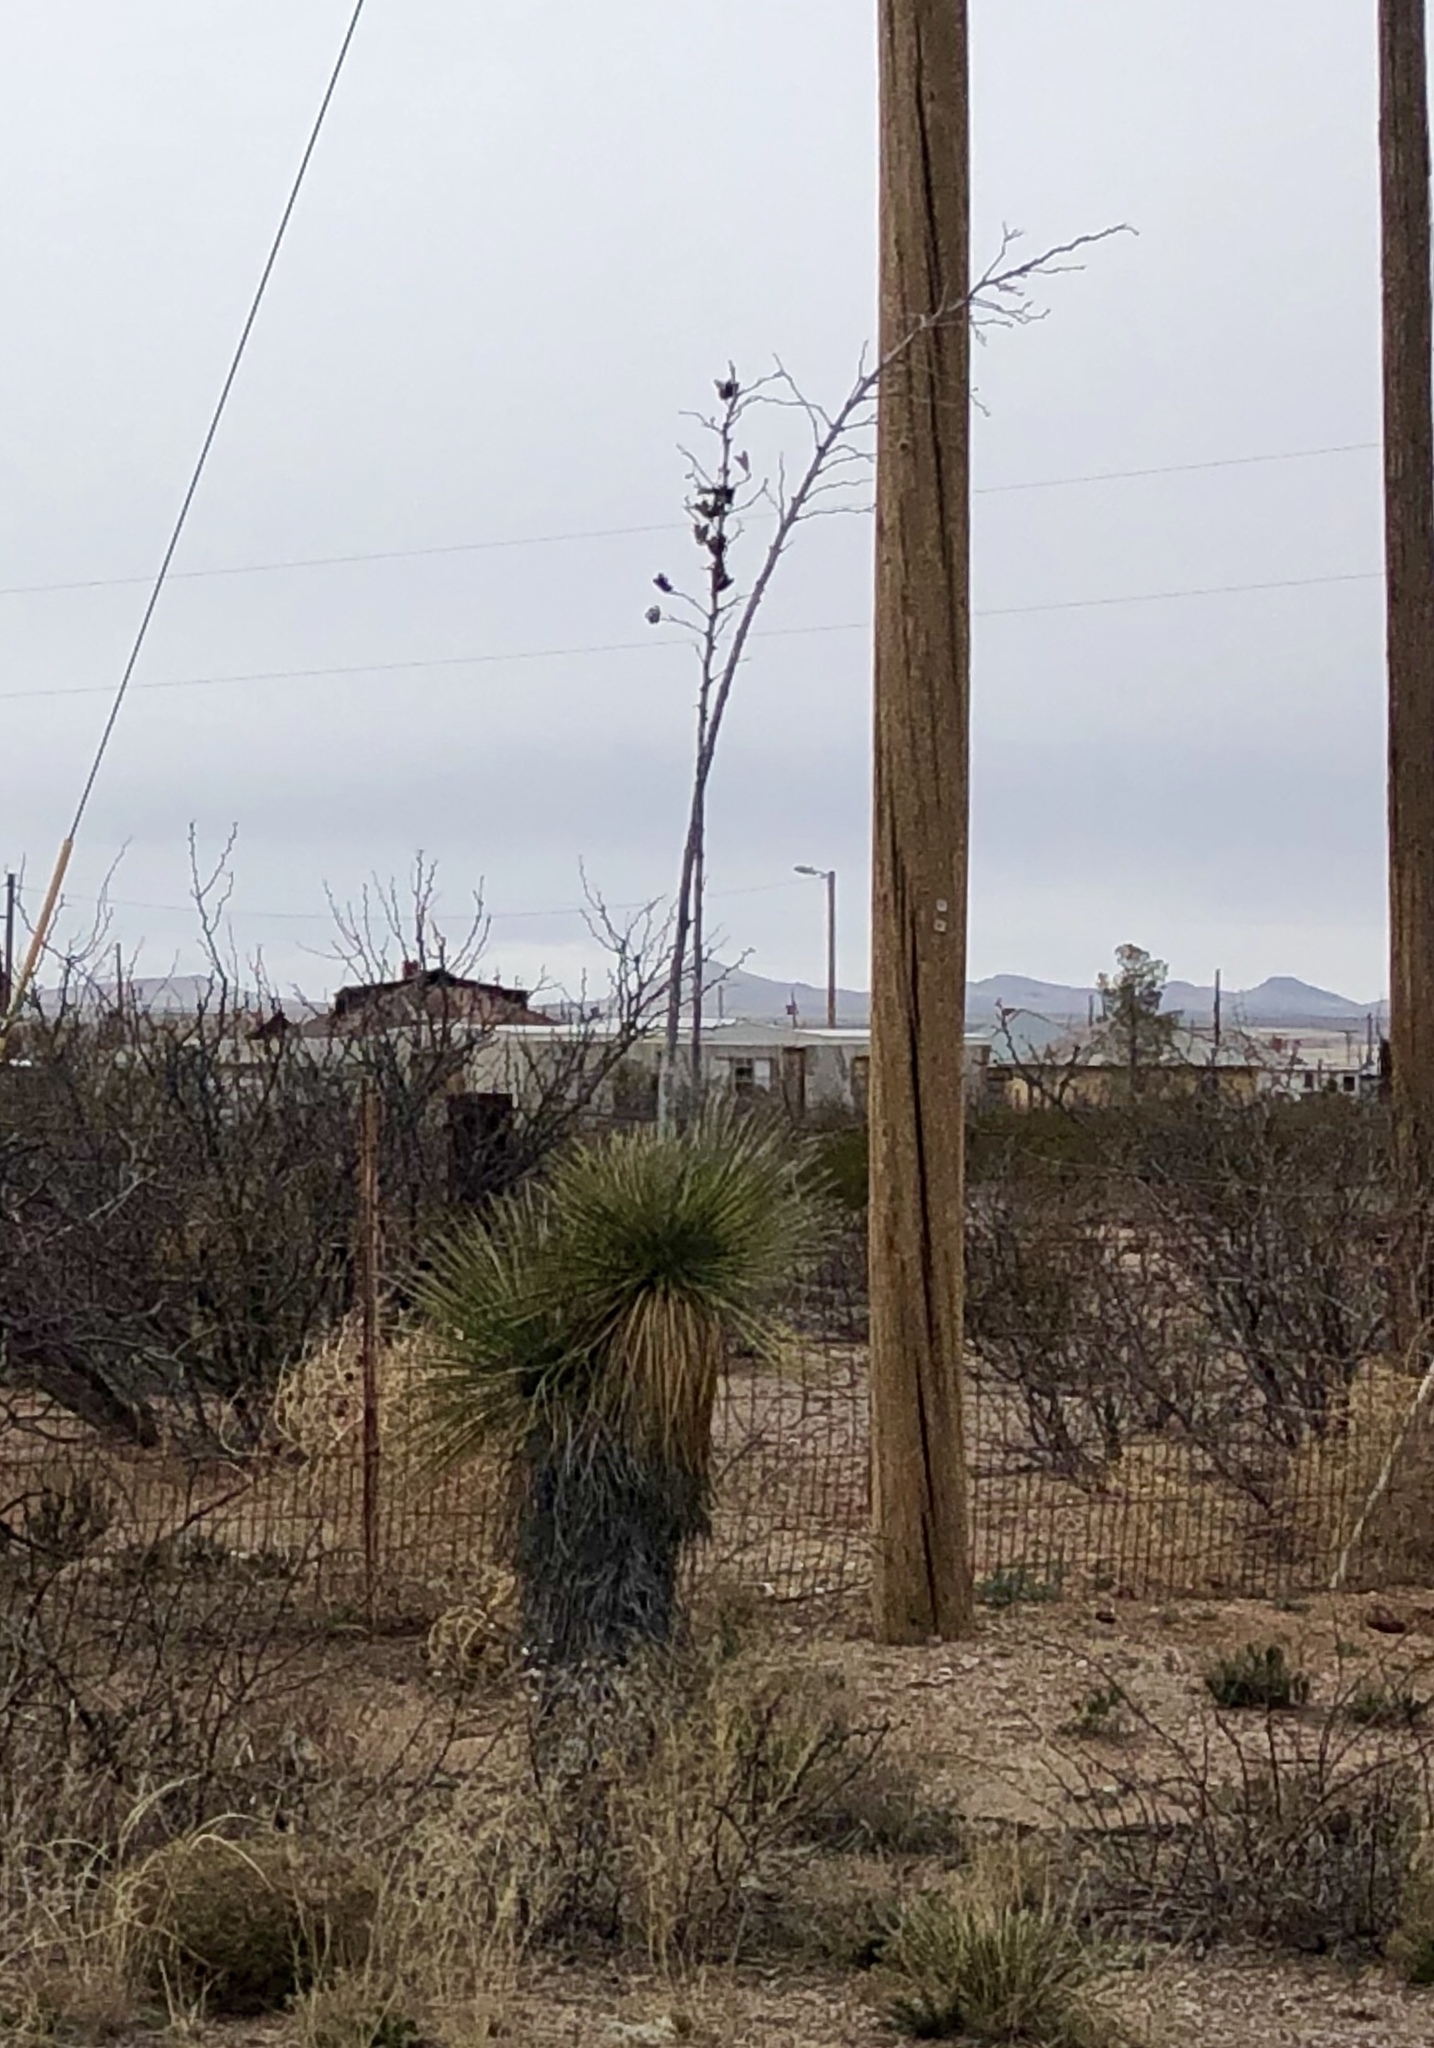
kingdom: Plantae
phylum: Tracheophyta
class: Liliopsida
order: Asparagales
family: Asparagaceae
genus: Yucca
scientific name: Yucca elata
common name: Palmella
